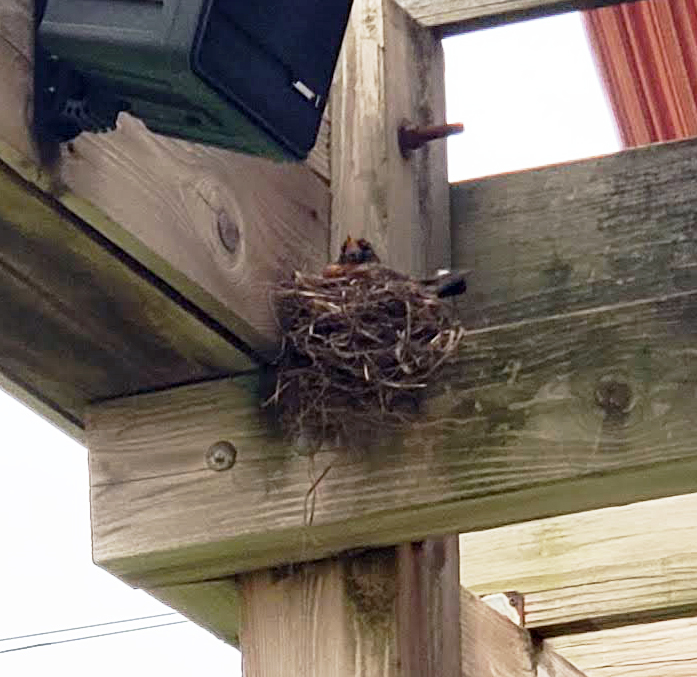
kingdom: Animalia
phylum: Chordata
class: Aves
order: Passeriformes
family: Turdidae
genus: Turdus
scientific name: Turdus migratorius
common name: American robin
